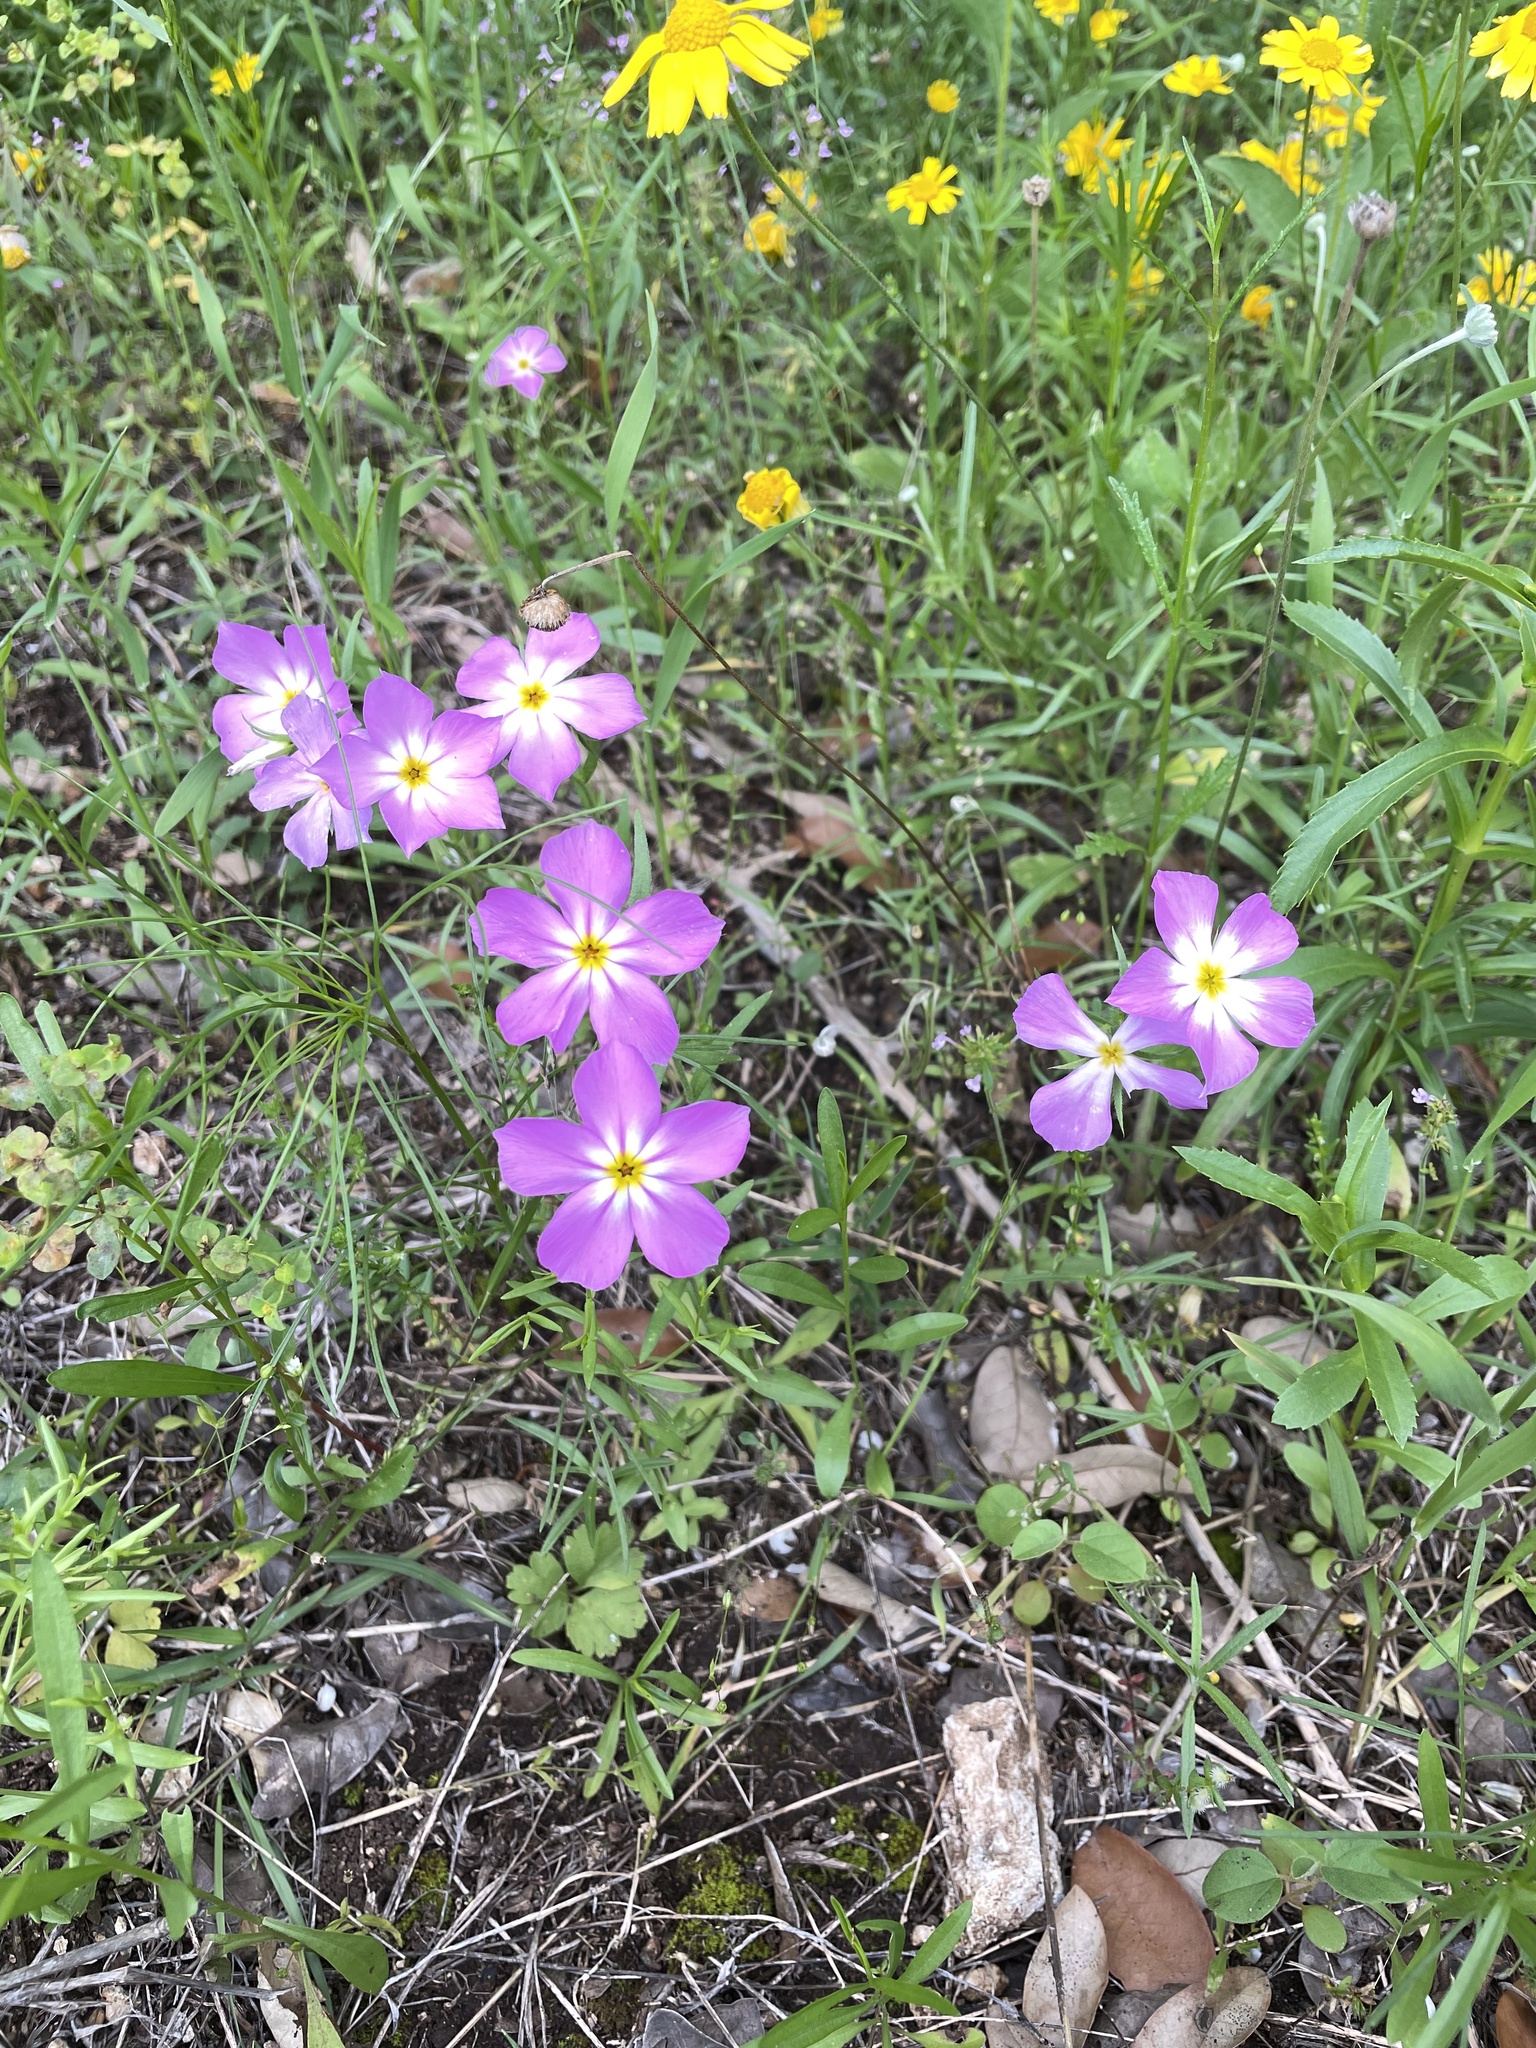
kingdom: Plantae
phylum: Tracheophyta
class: Magnoliopsida
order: Ericales
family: Polemoniaceae
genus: Phlox
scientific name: Phlox roemeriana
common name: Roemer's phlox
